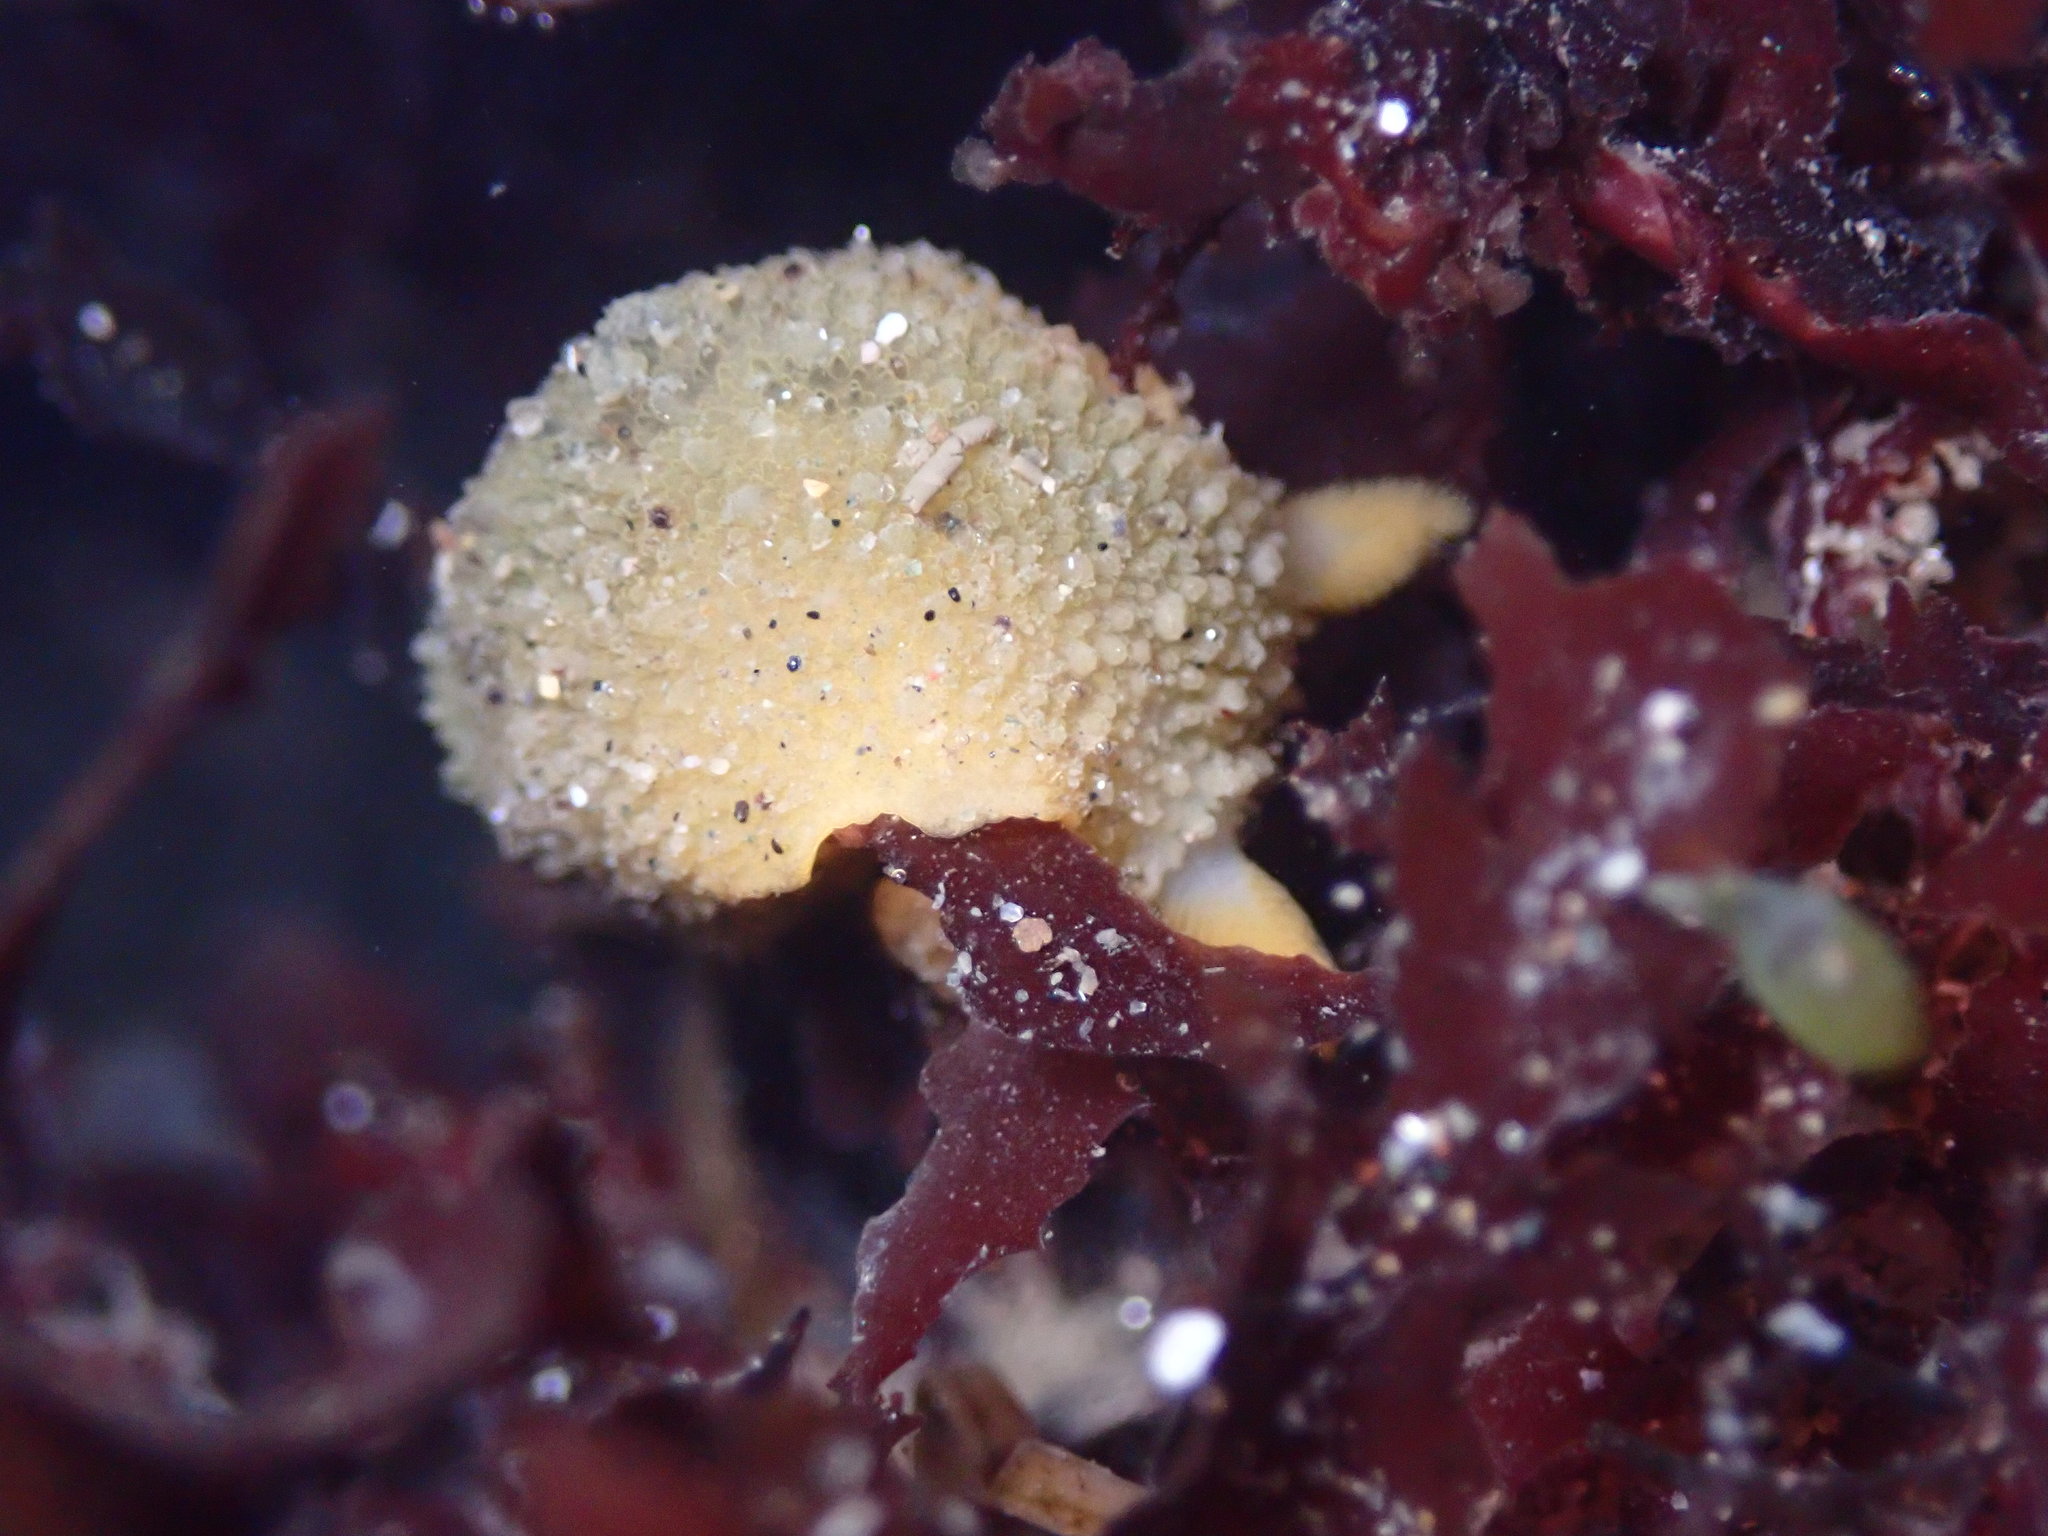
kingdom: Animalia
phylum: Mollusca
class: Gastropoda
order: Nudibranchia
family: Dorididae
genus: Doris
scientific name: Doris montereyensis
